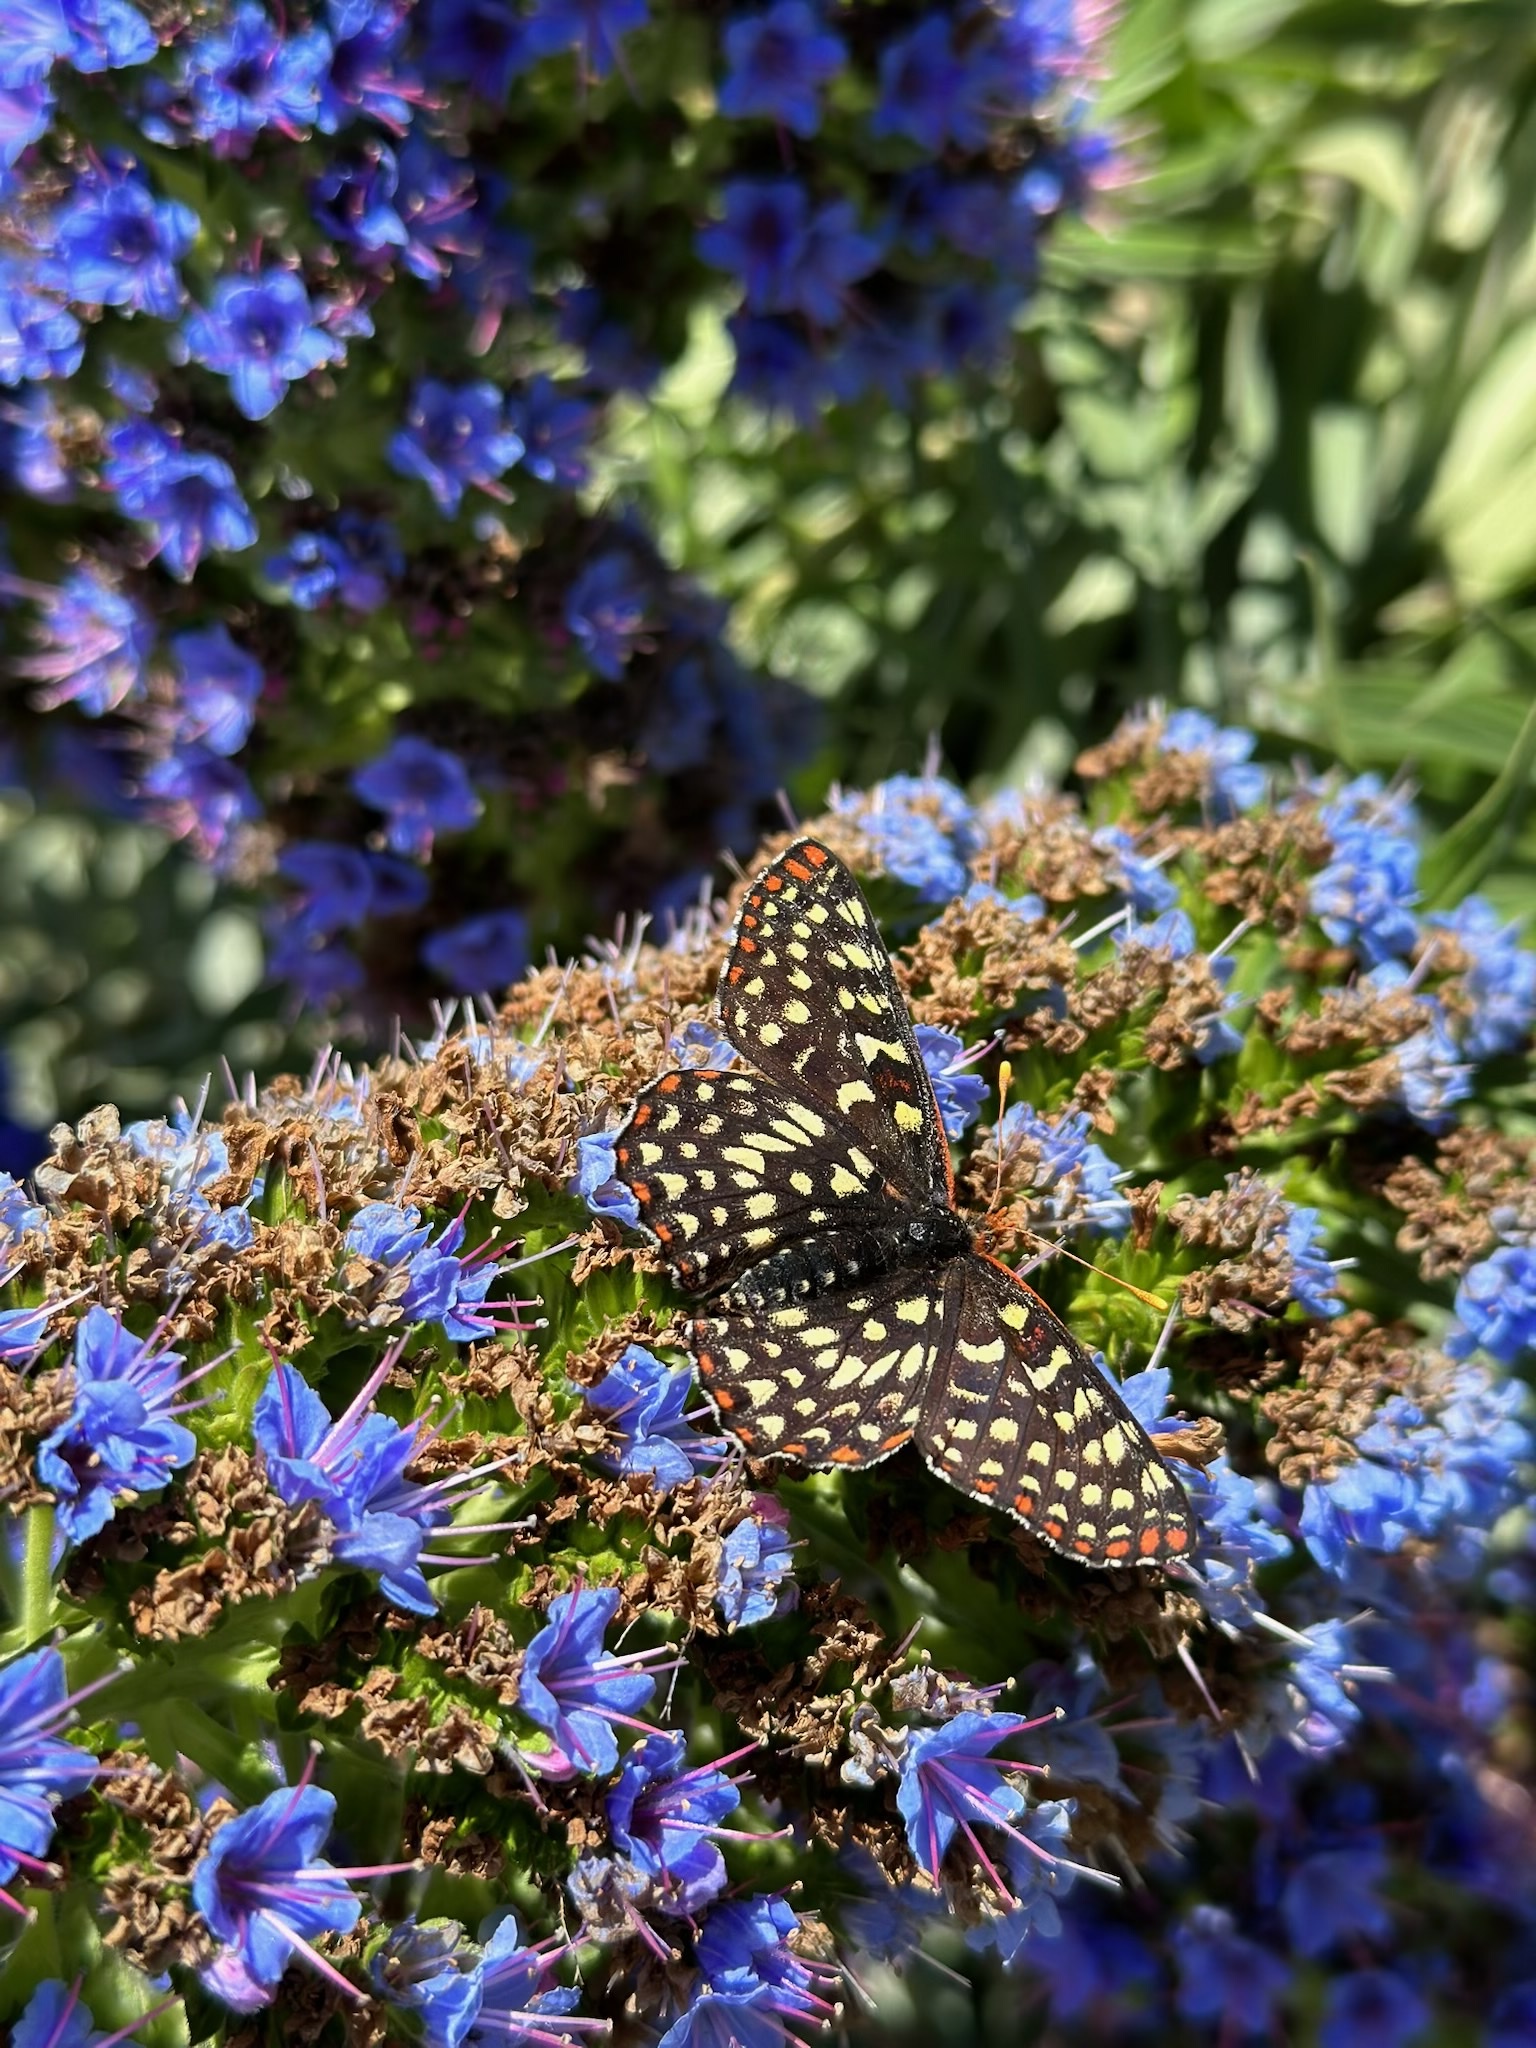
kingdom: Animalia
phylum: Arthropoda
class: Insecta
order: Lepidoptera
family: Nymphalidae
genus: Occidryas
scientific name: Occidryas chalcedona
